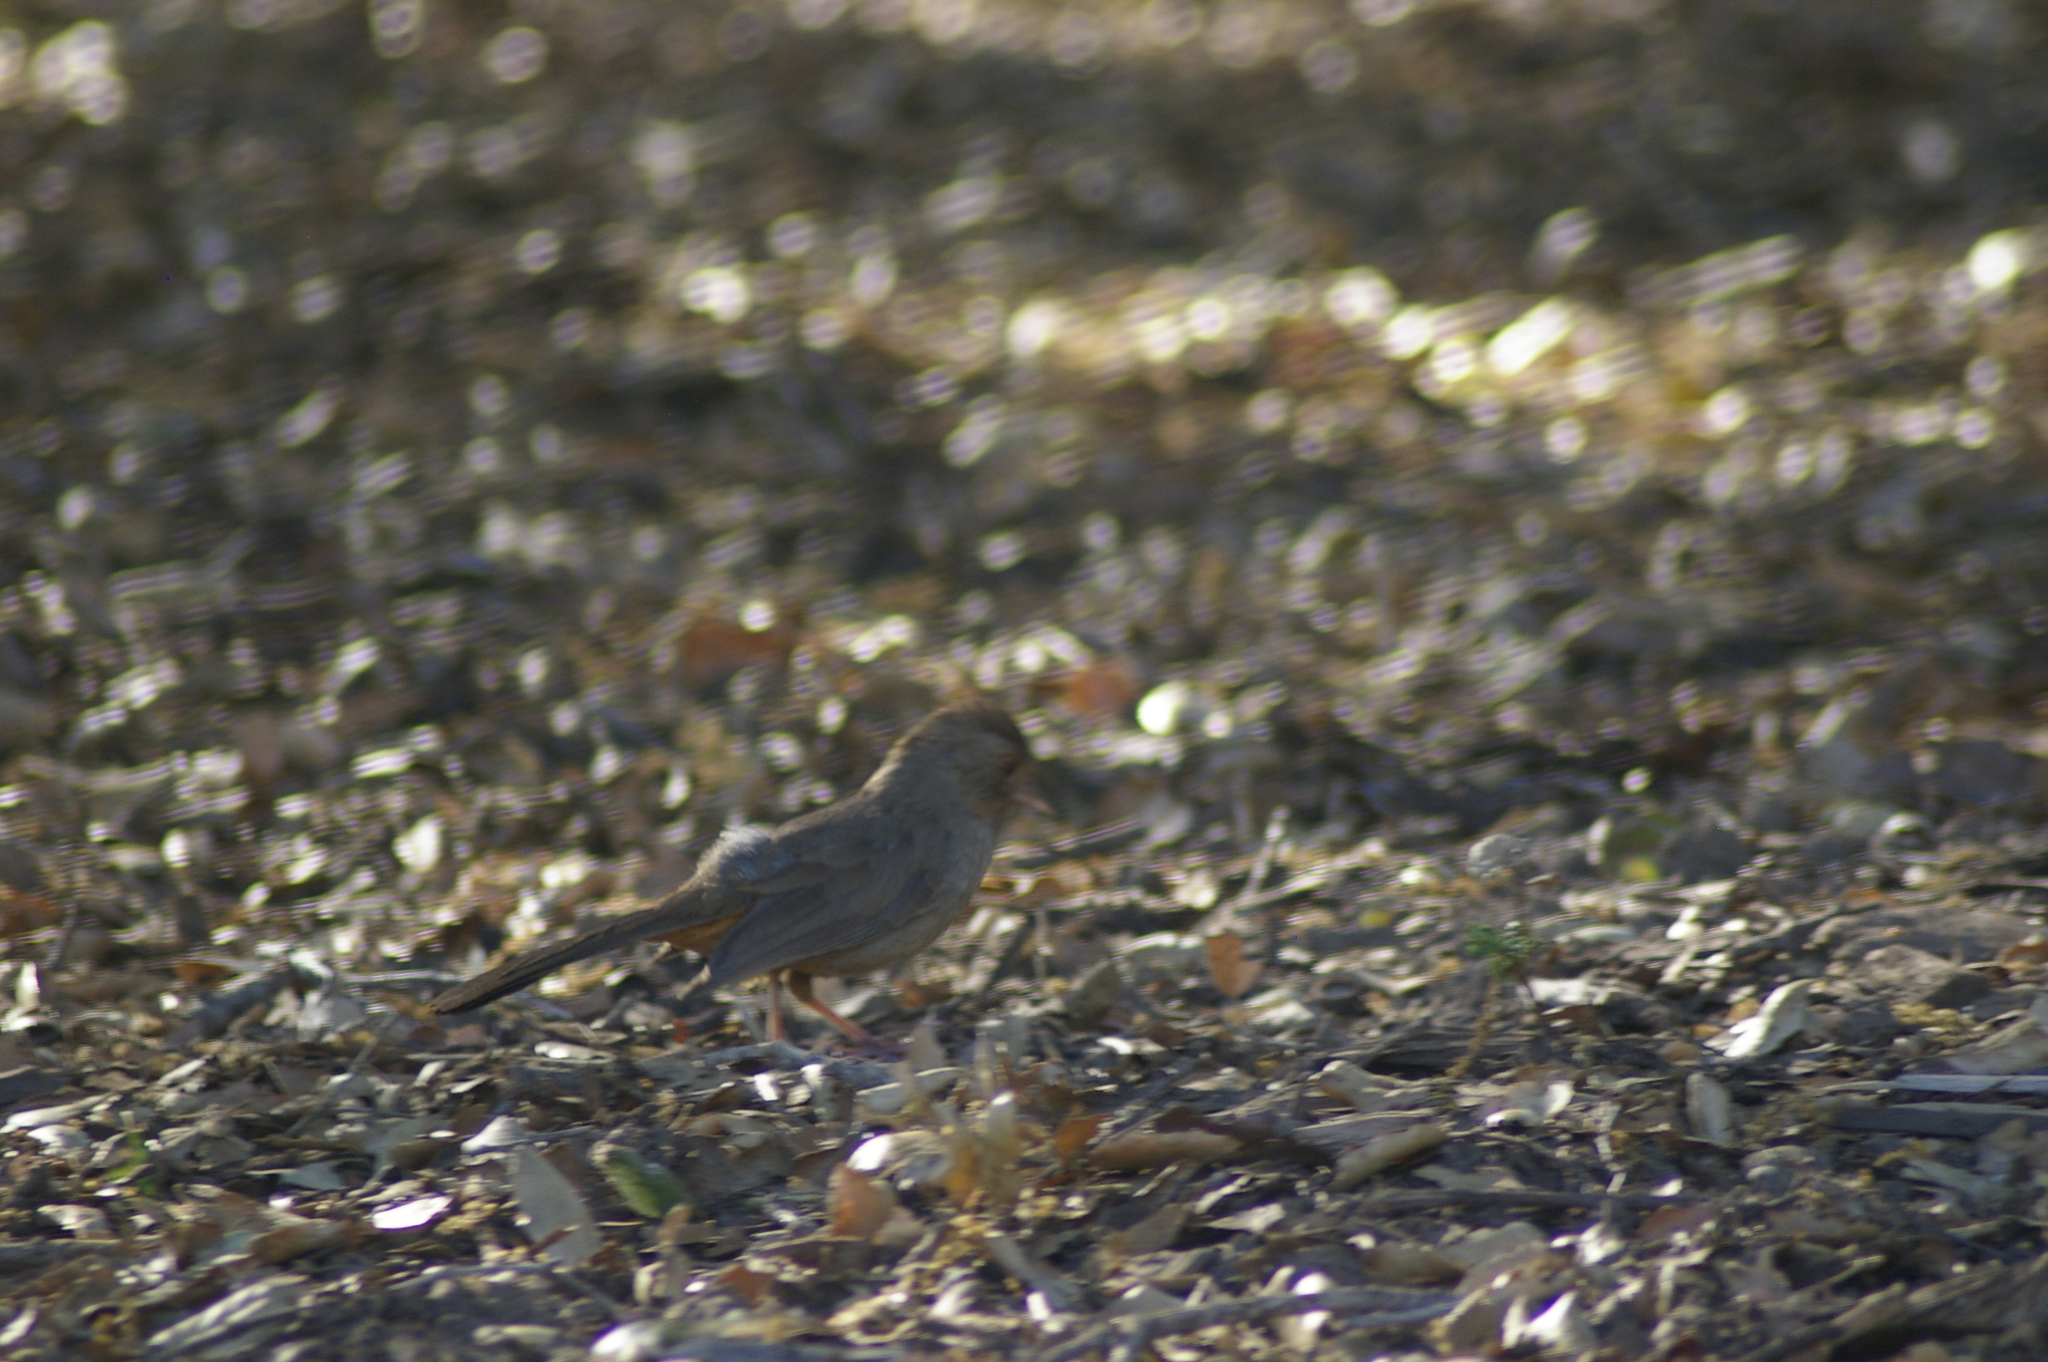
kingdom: Animalia
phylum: Chordata
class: Aves
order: Passeriformes
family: Passerellidae
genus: Melozone
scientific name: Melozone crissalis
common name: California towhee
